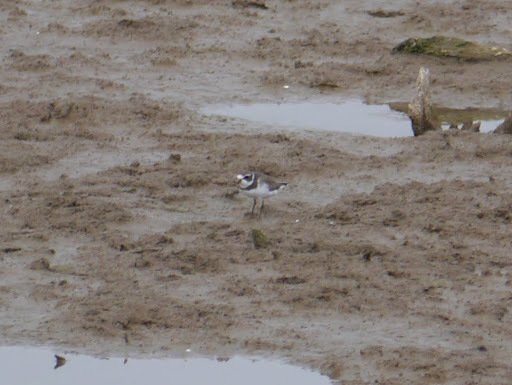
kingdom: Animalia
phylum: Chordata
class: Aves
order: Charadriiformes
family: Charadriidae
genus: Charadrius
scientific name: Charadrius semipalmatus
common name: Semipalmated plover
